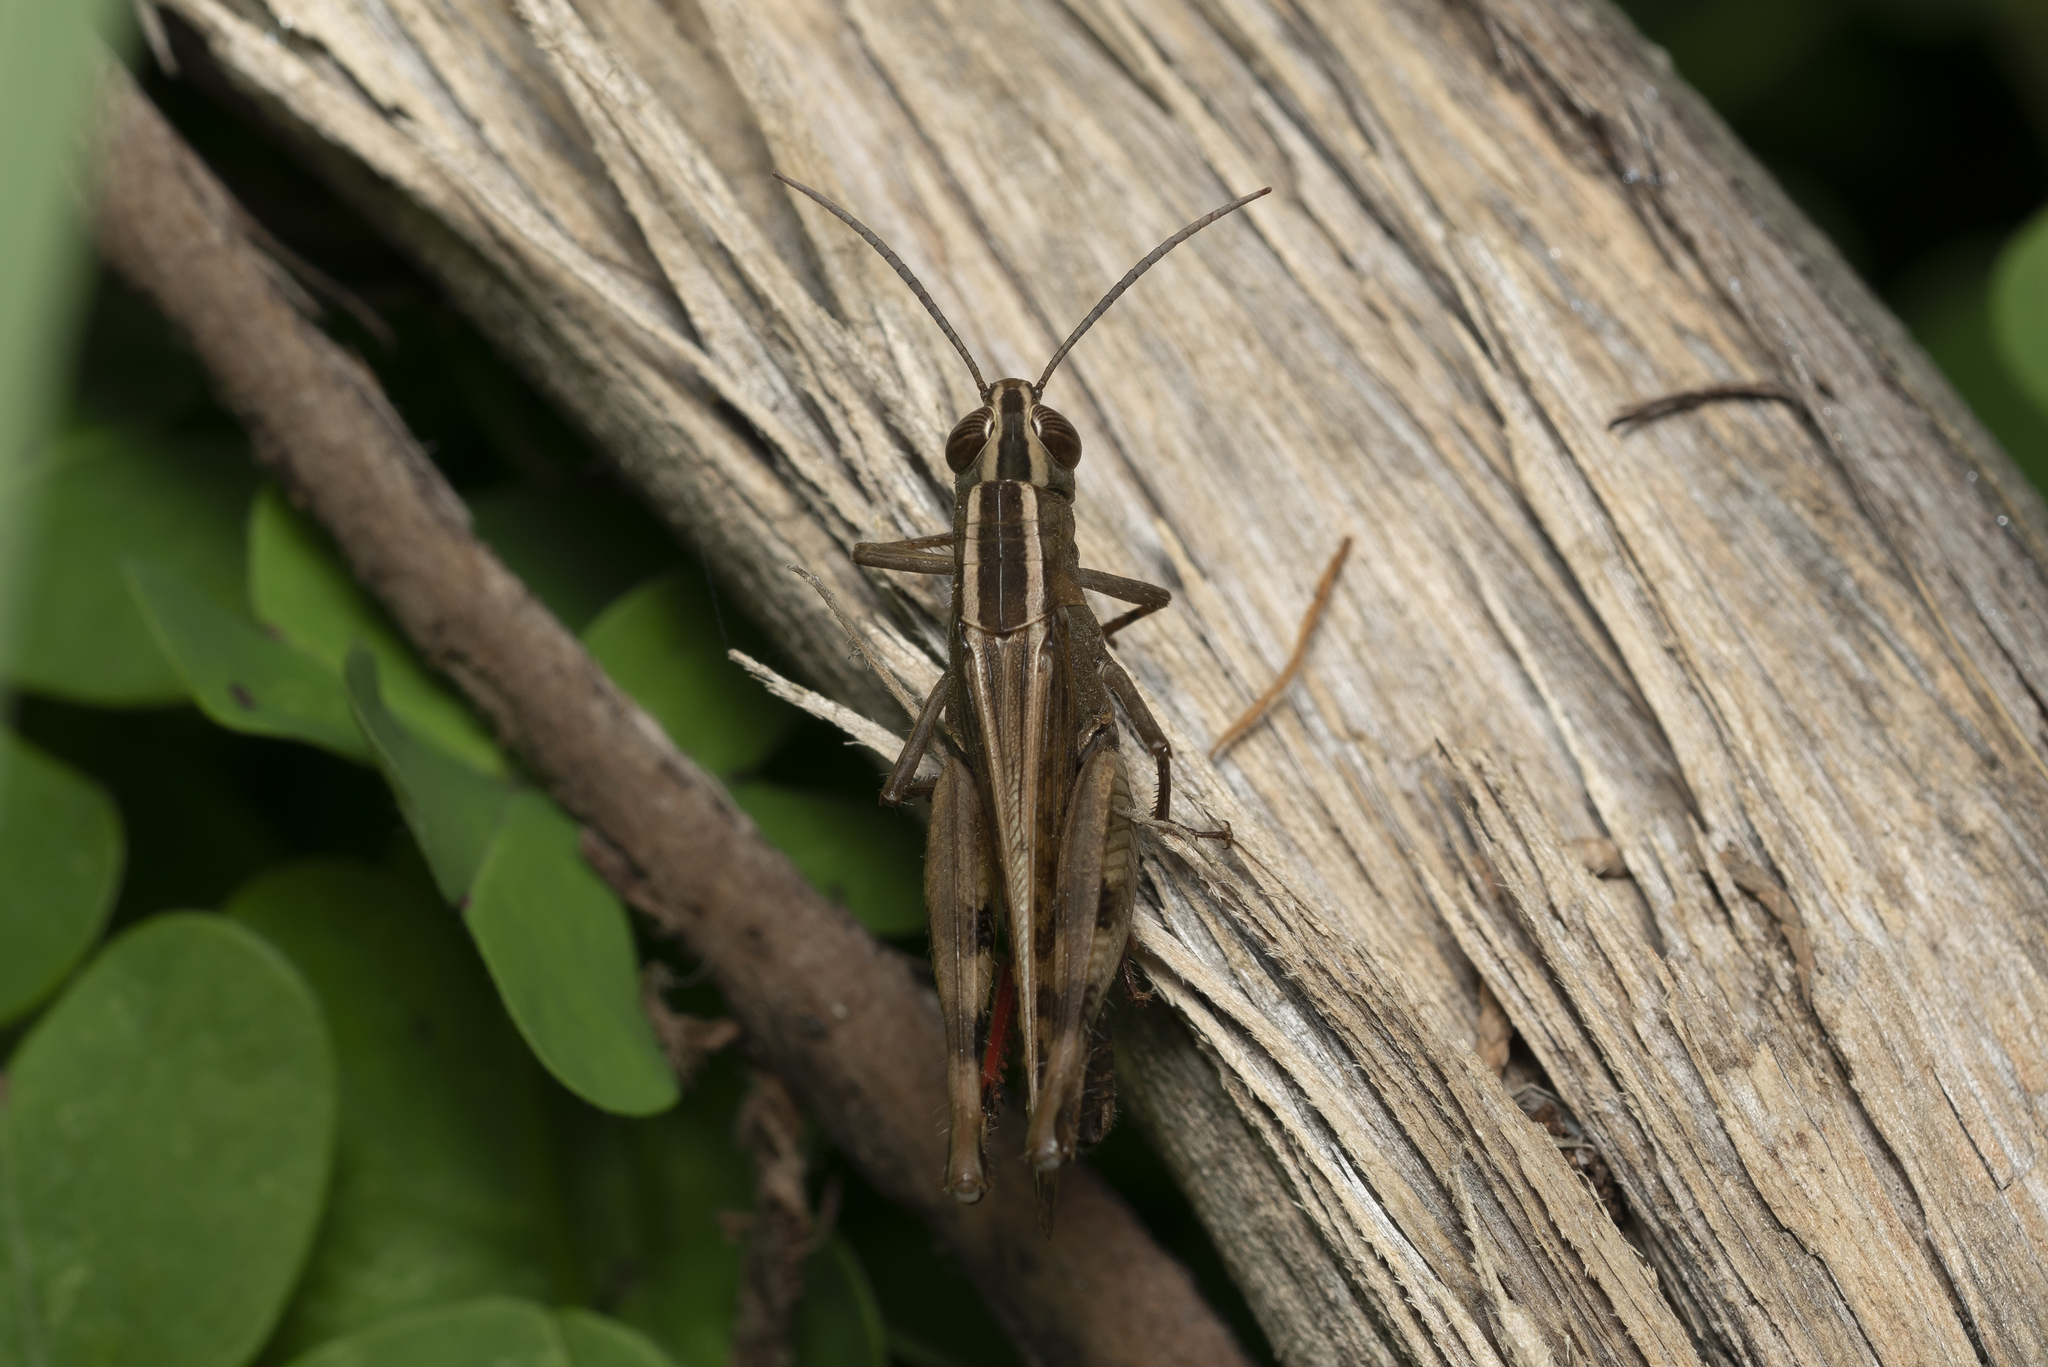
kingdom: Animalia
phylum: Arthropoda
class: Insecta
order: Orthoptera
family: Acrididae
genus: Heteracris
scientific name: Heteracris littoralis
